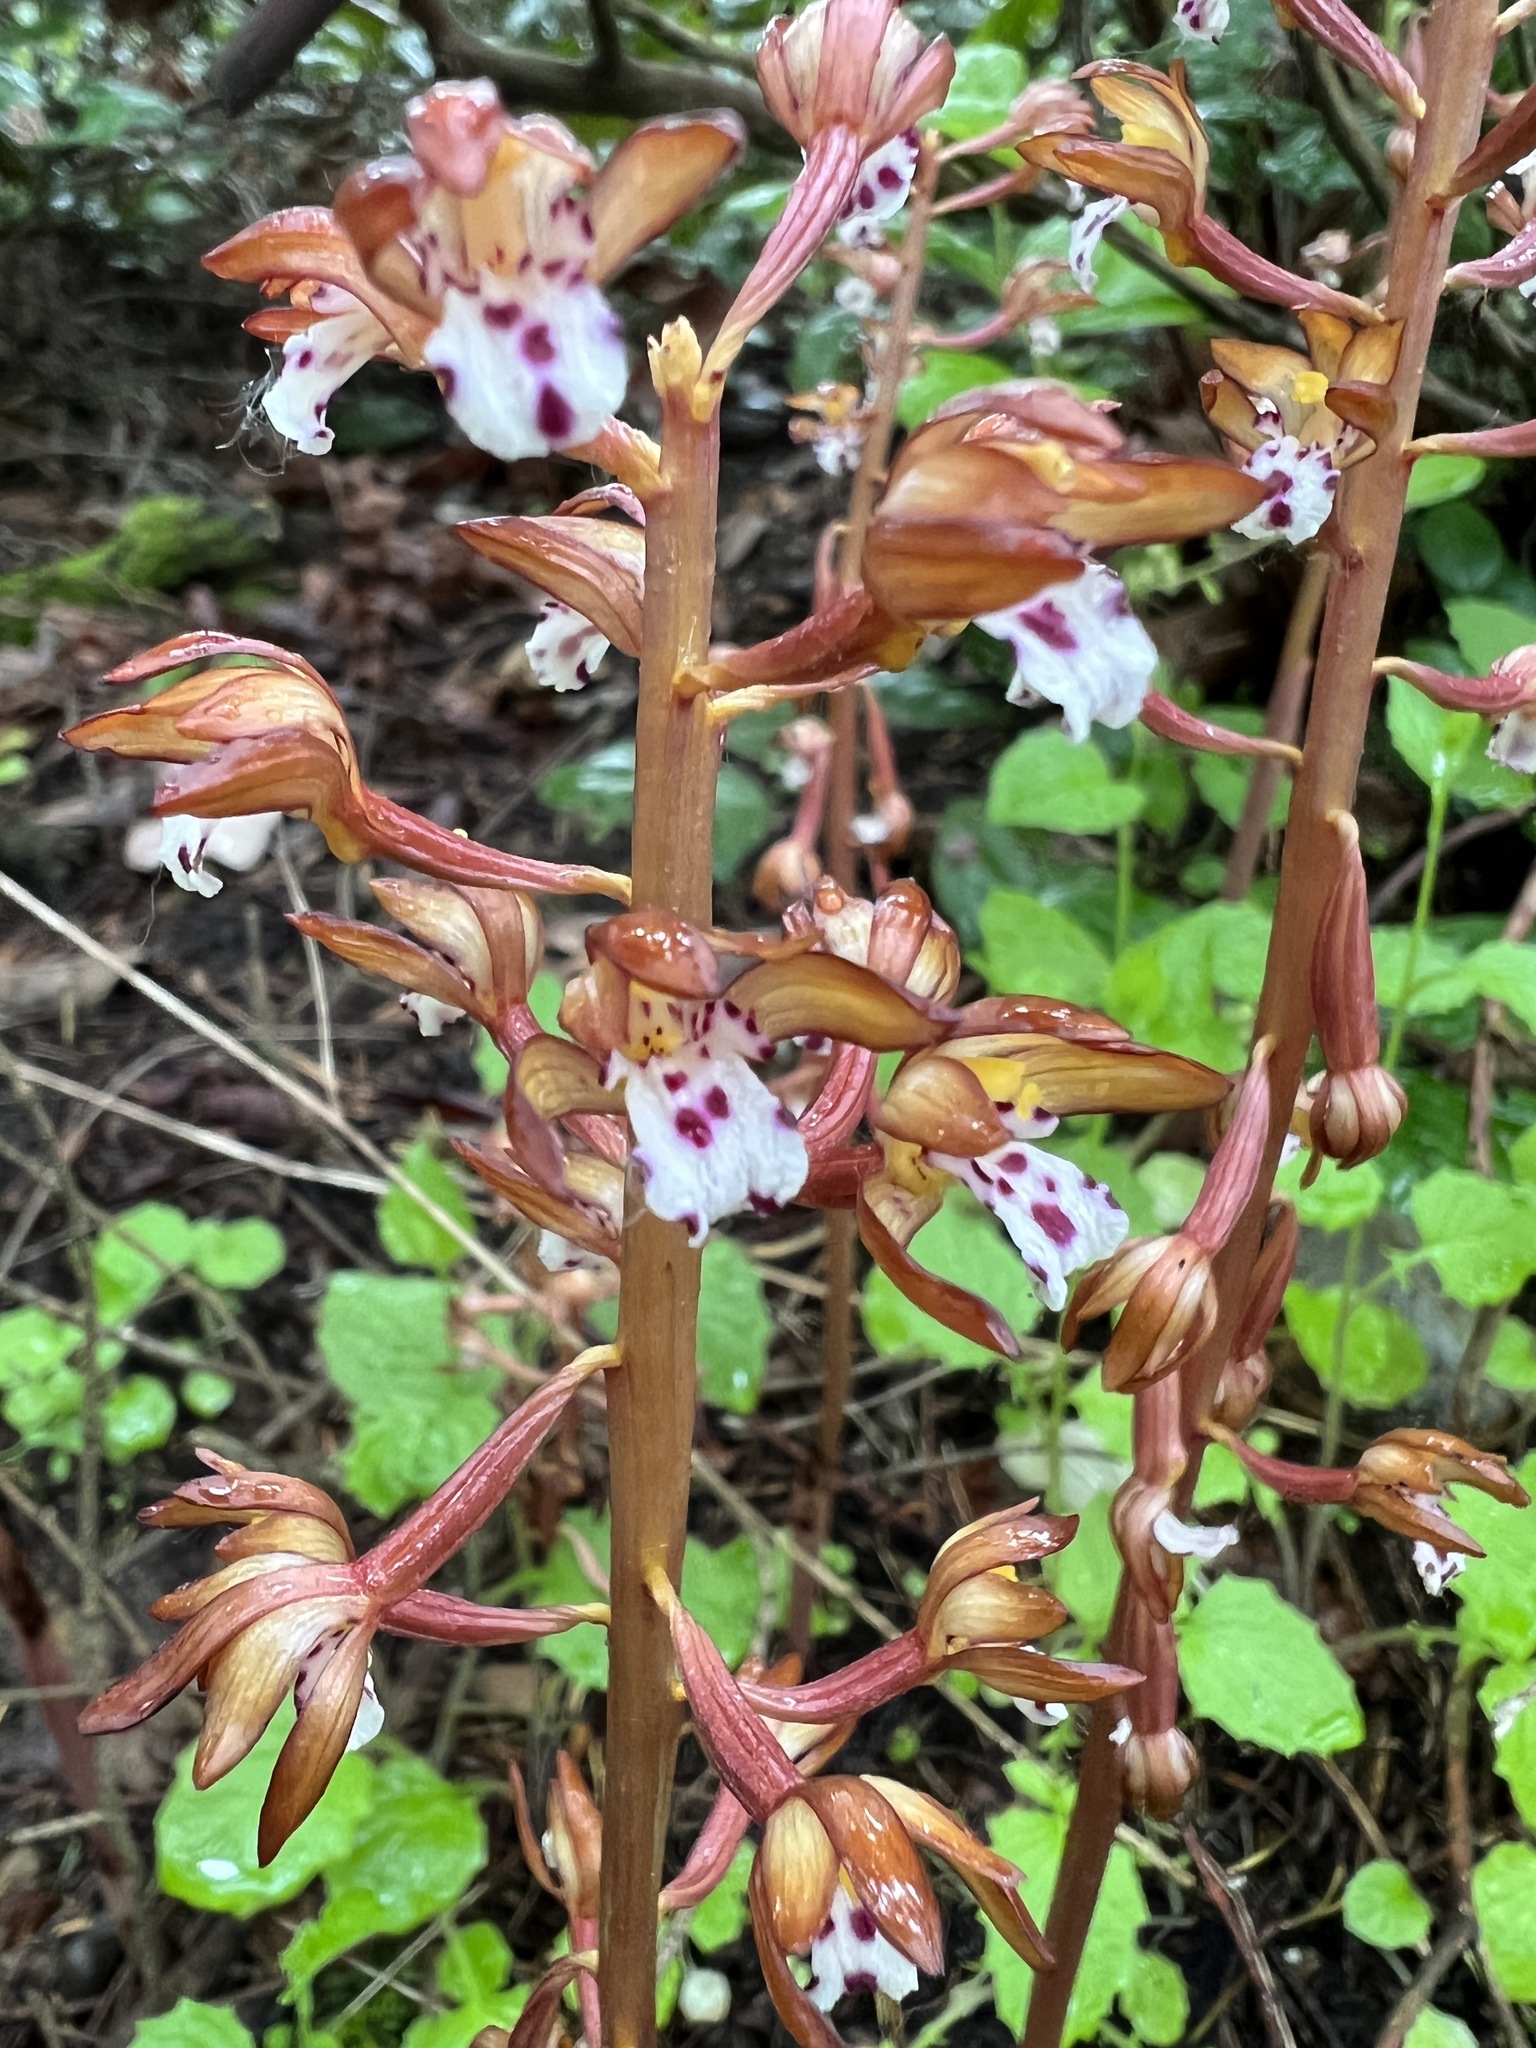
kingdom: Plantae
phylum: Tracheophyta
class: Liliopsida
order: Asparagales
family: Orchidaceae
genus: Corallorhiza
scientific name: Corallorhiza maculata
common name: Spotted coralroot
